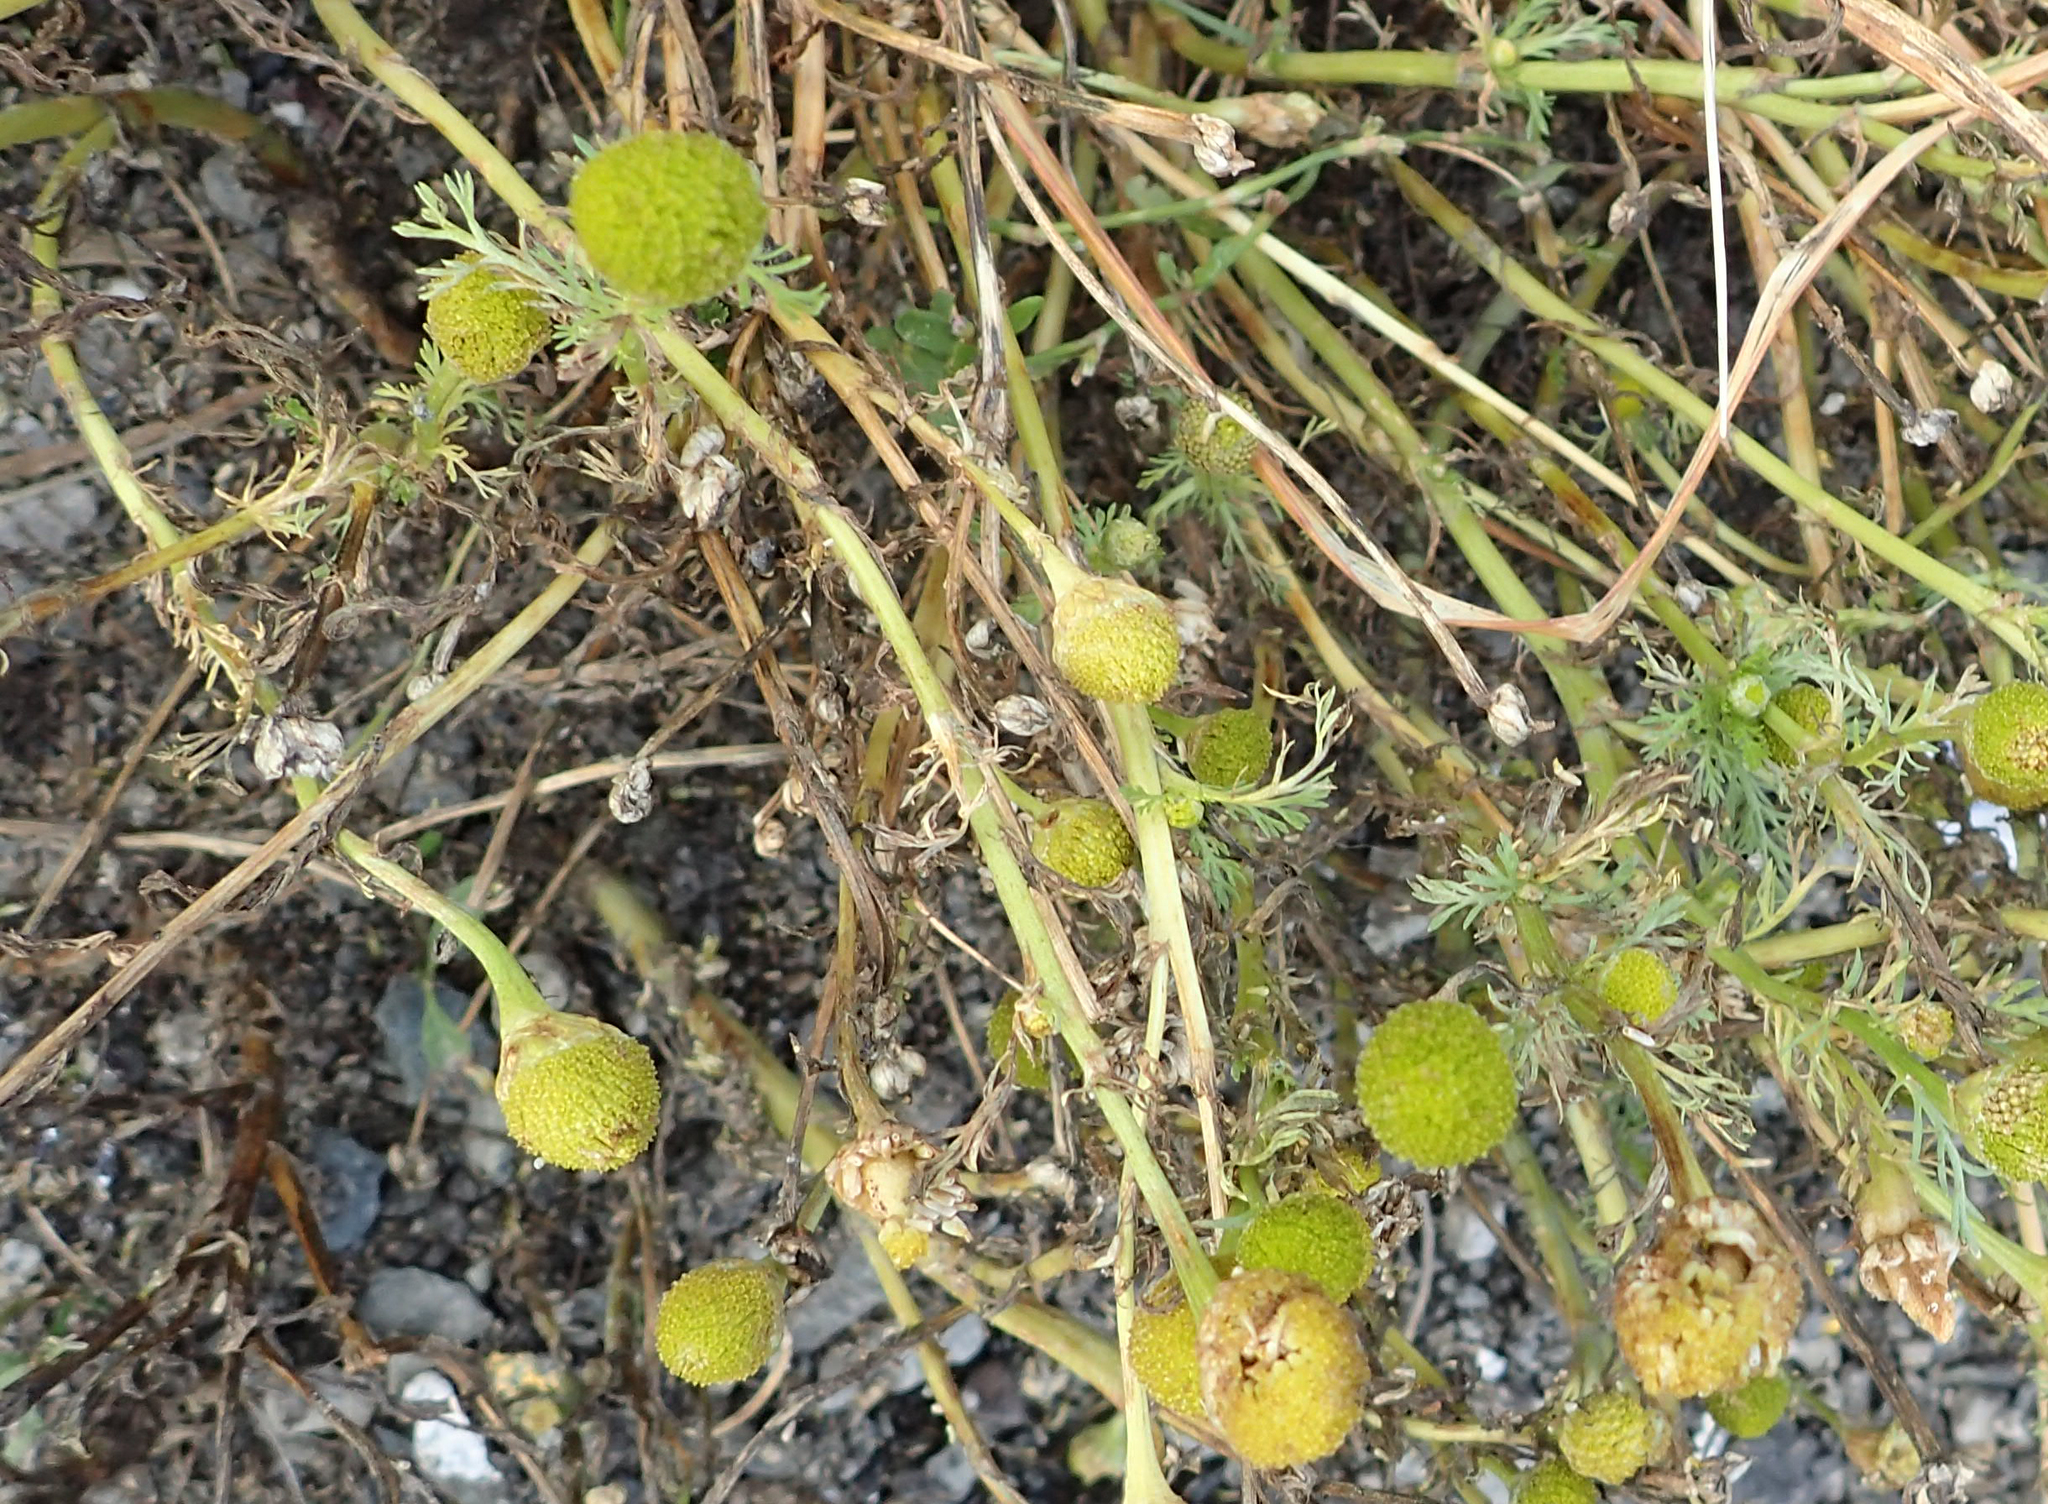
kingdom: Plantae
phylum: Tracheophyta
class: Magnoliopsida
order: Asterales
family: Asteraceae
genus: Matricaria
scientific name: Matricaria discoidea
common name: Disc mayweed
